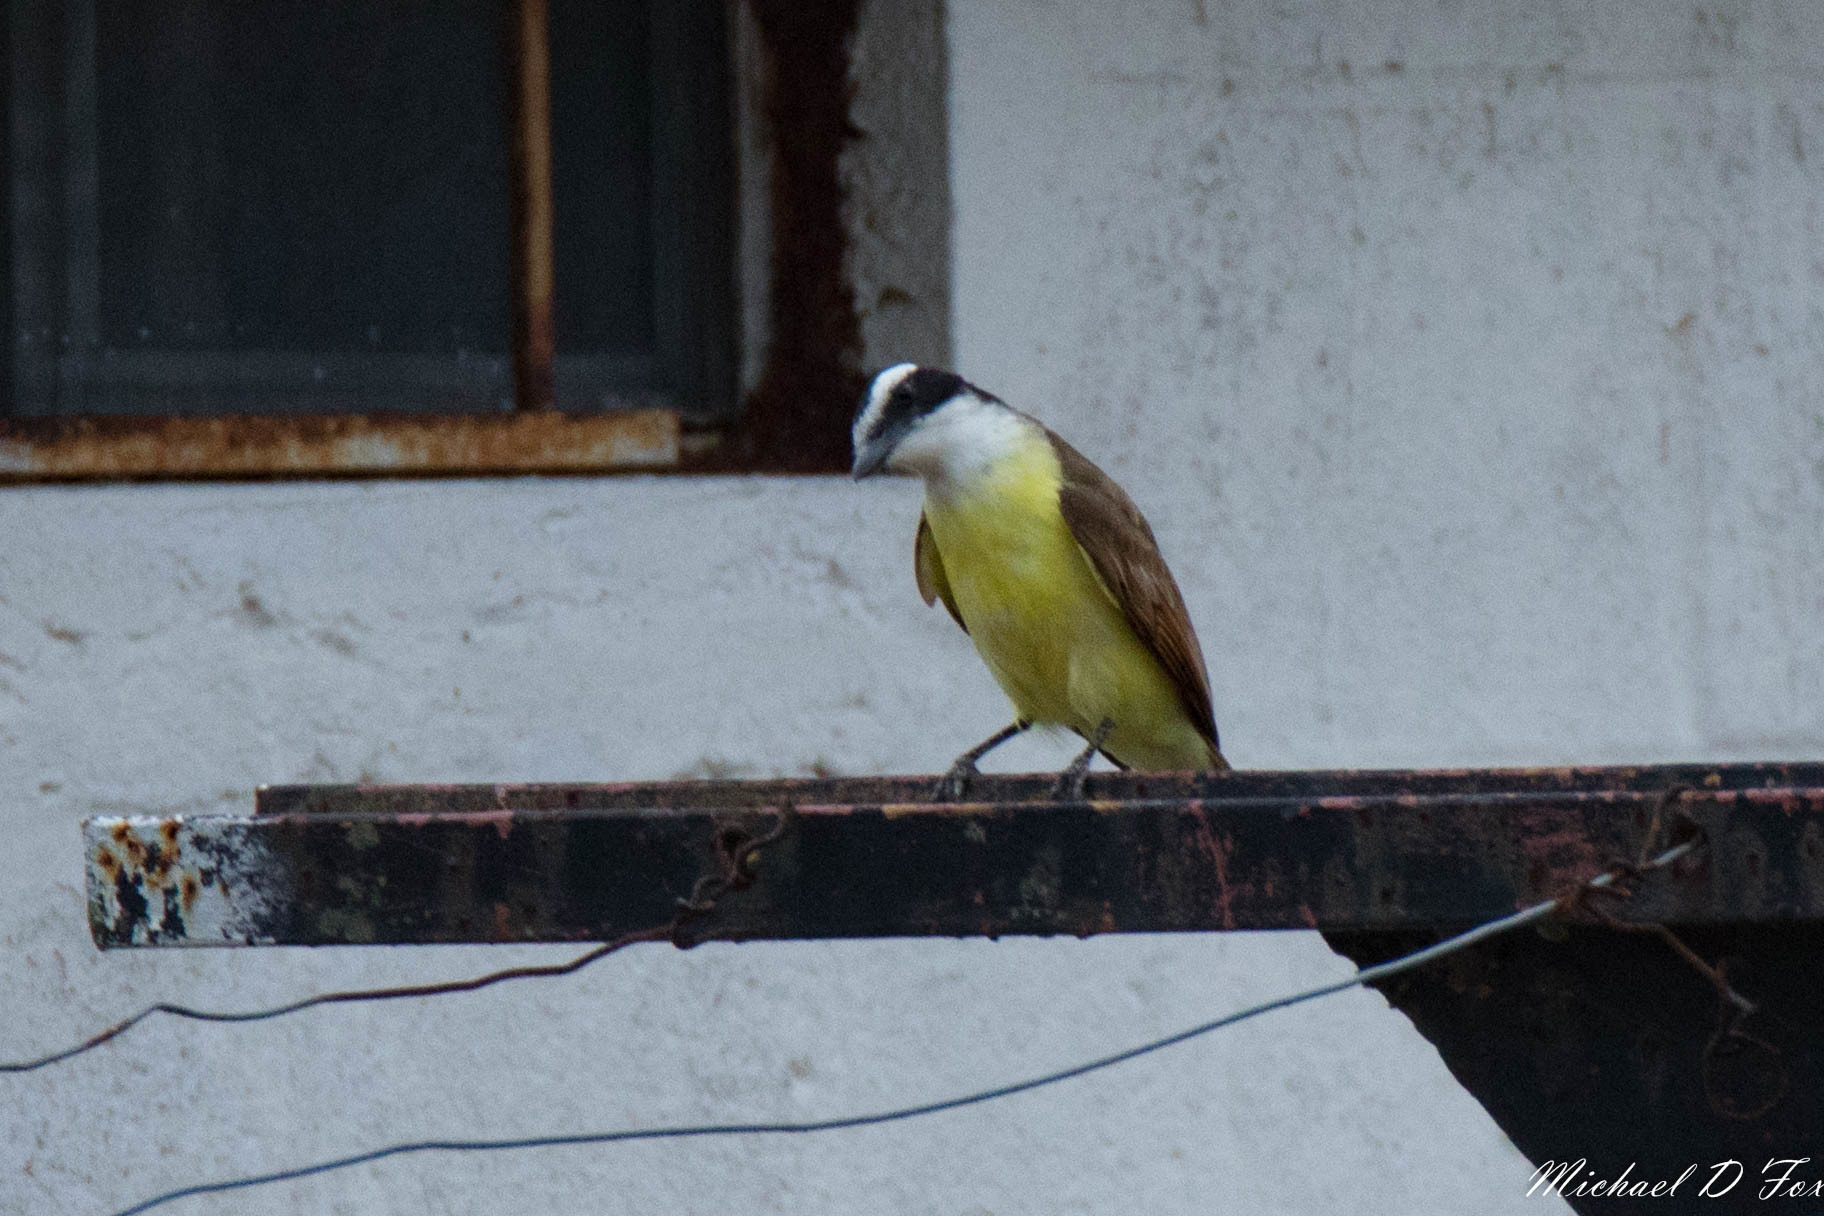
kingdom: Animalia
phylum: Chordata
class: Aves
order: Passeriformes
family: Tyrannidae
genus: Pitangus
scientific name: Pitangus sulphuratus
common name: Great kiskadee
